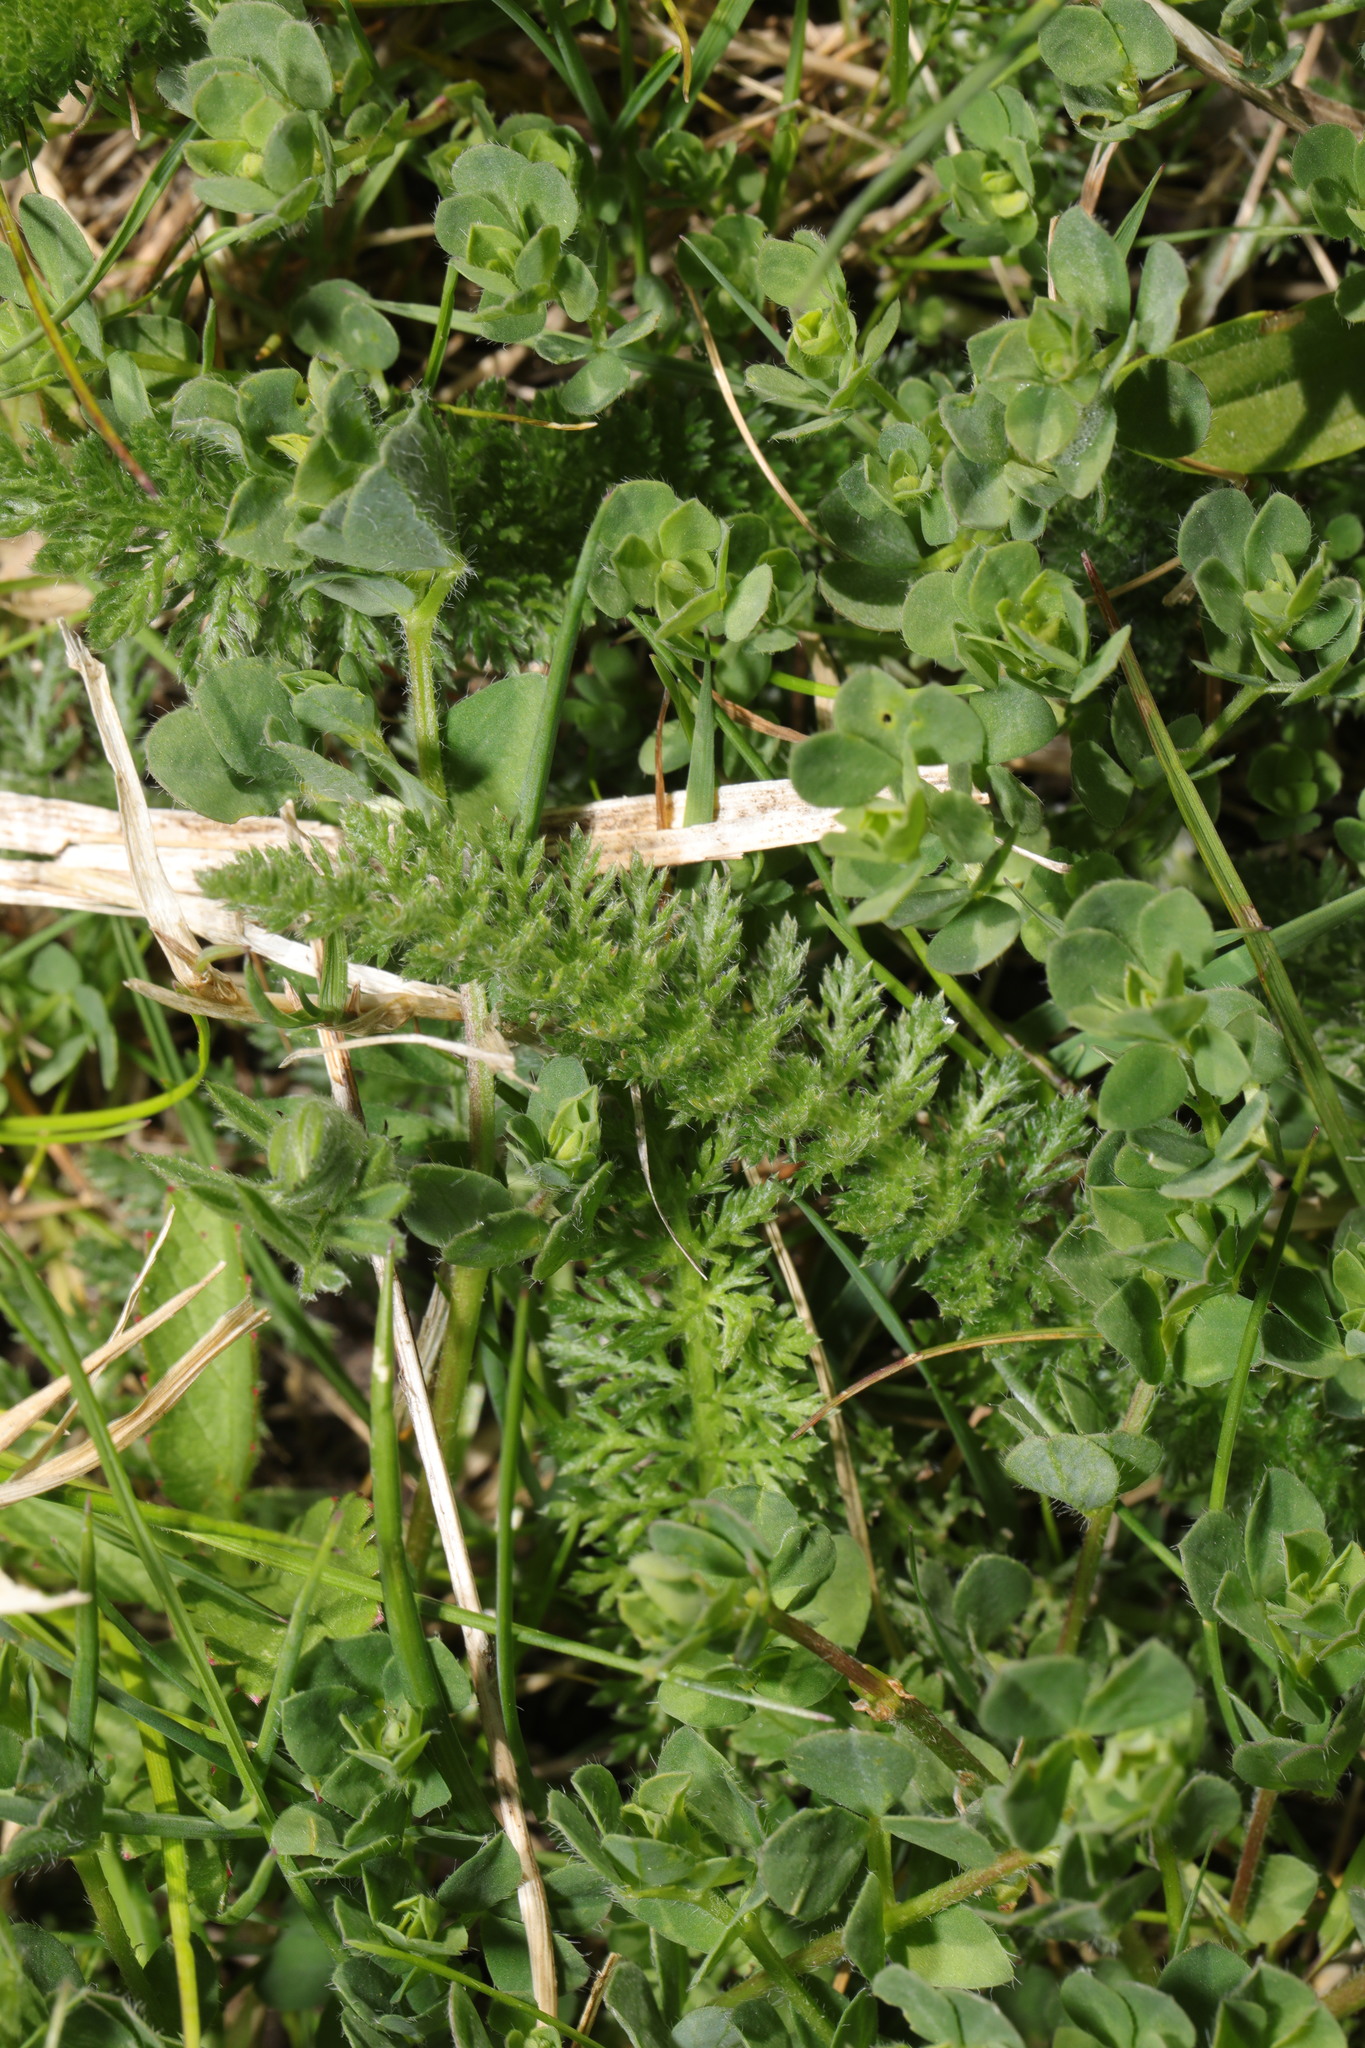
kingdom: Plantae
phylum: Tracheophyta
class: Magnoliopsida
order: Fabales
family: Fabaceae
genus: Lotus
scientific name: Lotus corniculatus
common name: Common bird's-foot-trefoil
